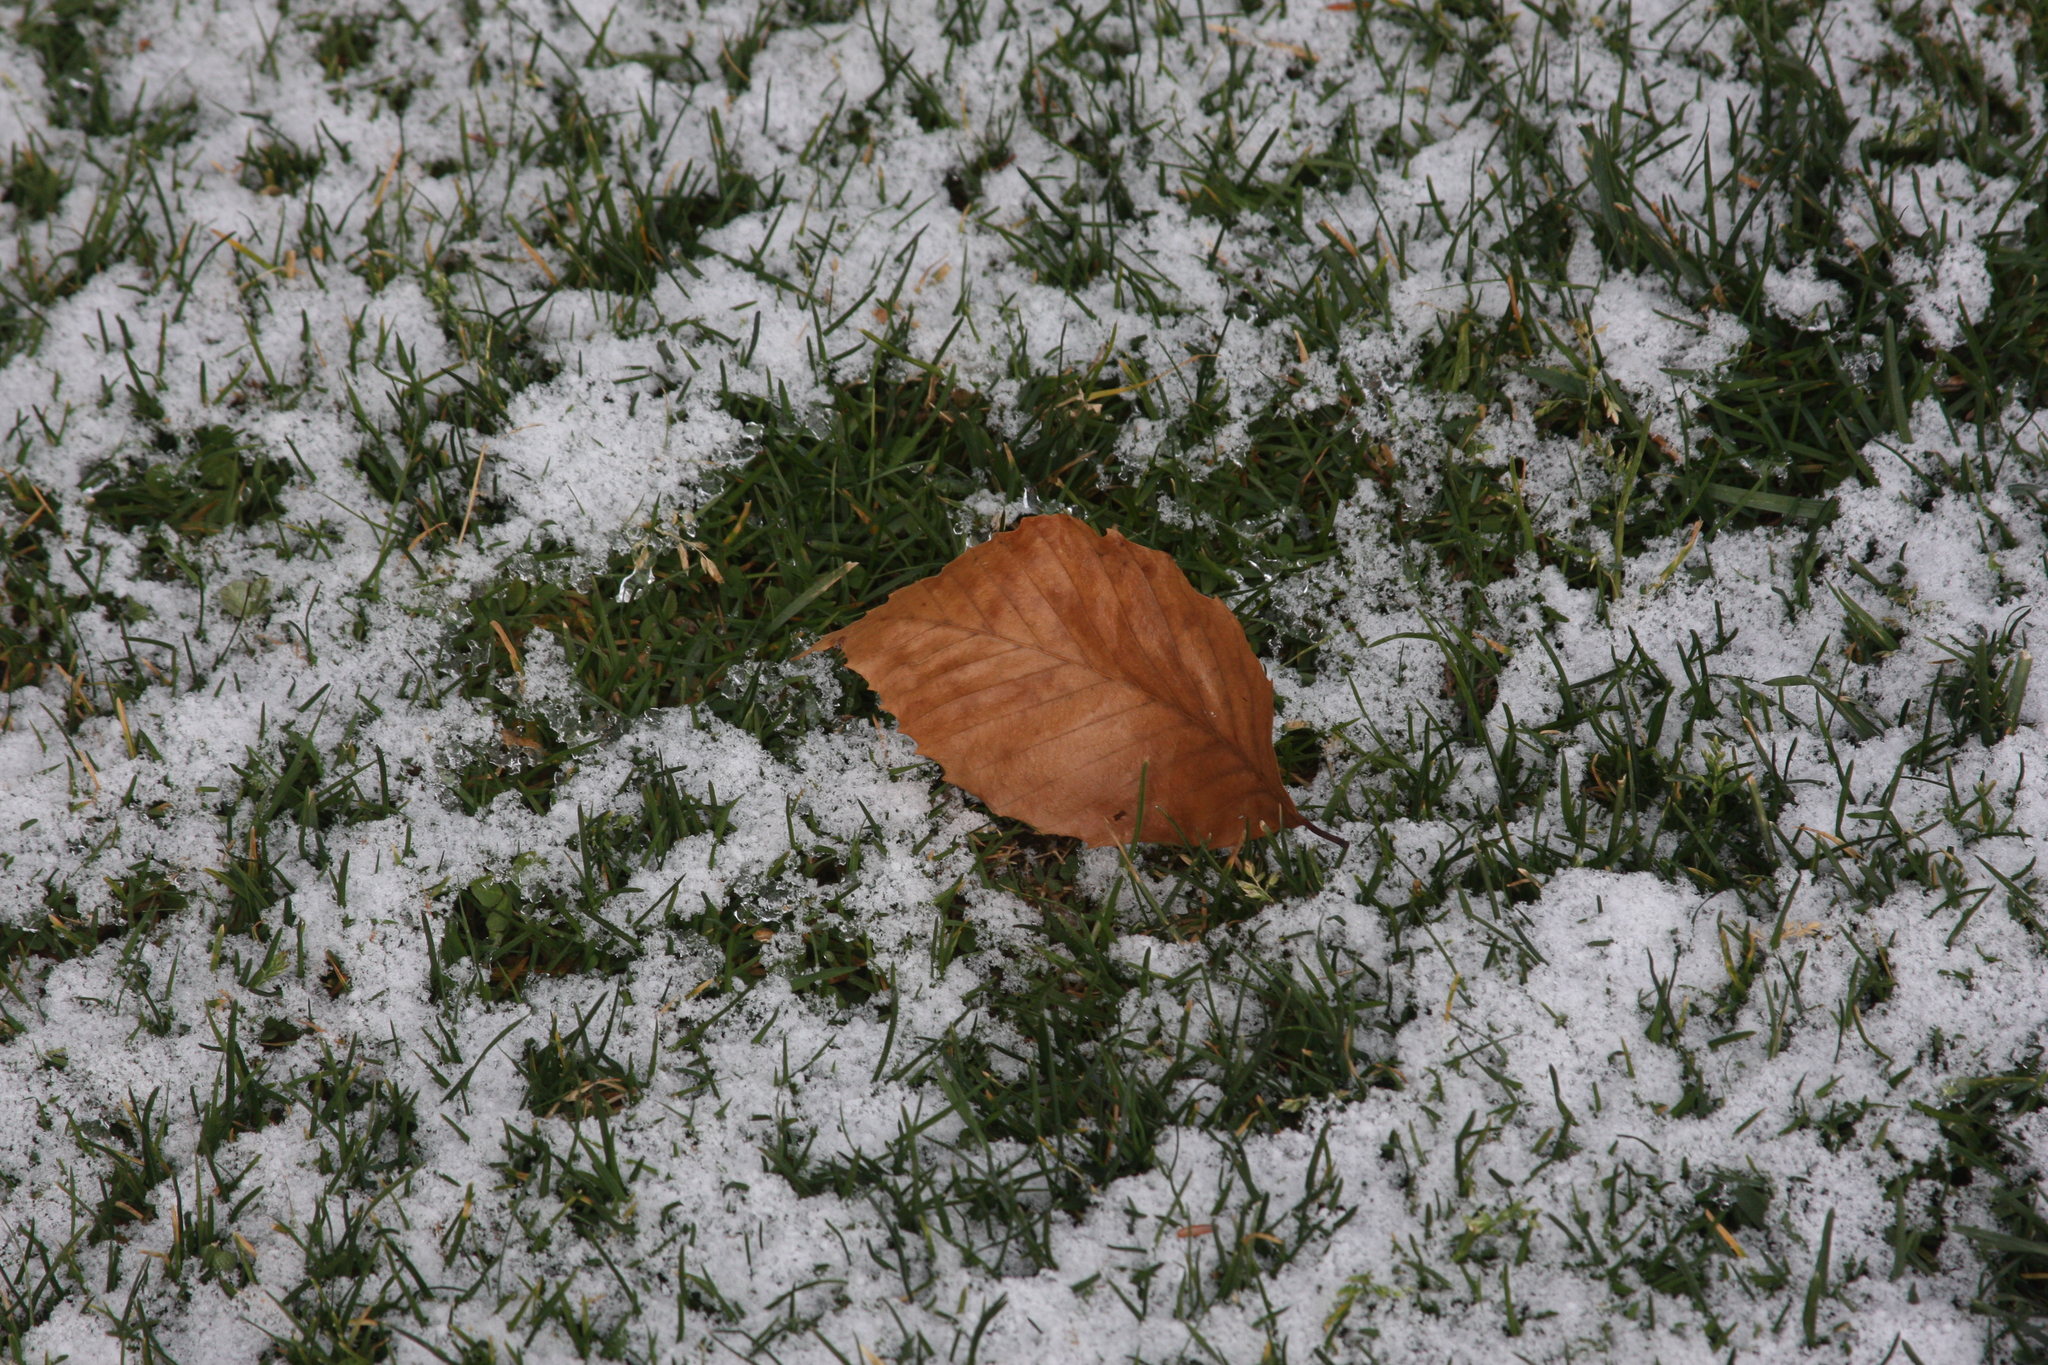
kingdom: Plantae
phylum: Tracheophyta
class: Magnoliopsida
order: Fagales
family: Fagaceae
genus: Fagus
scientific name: Fagus grandifolia
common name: American beech
